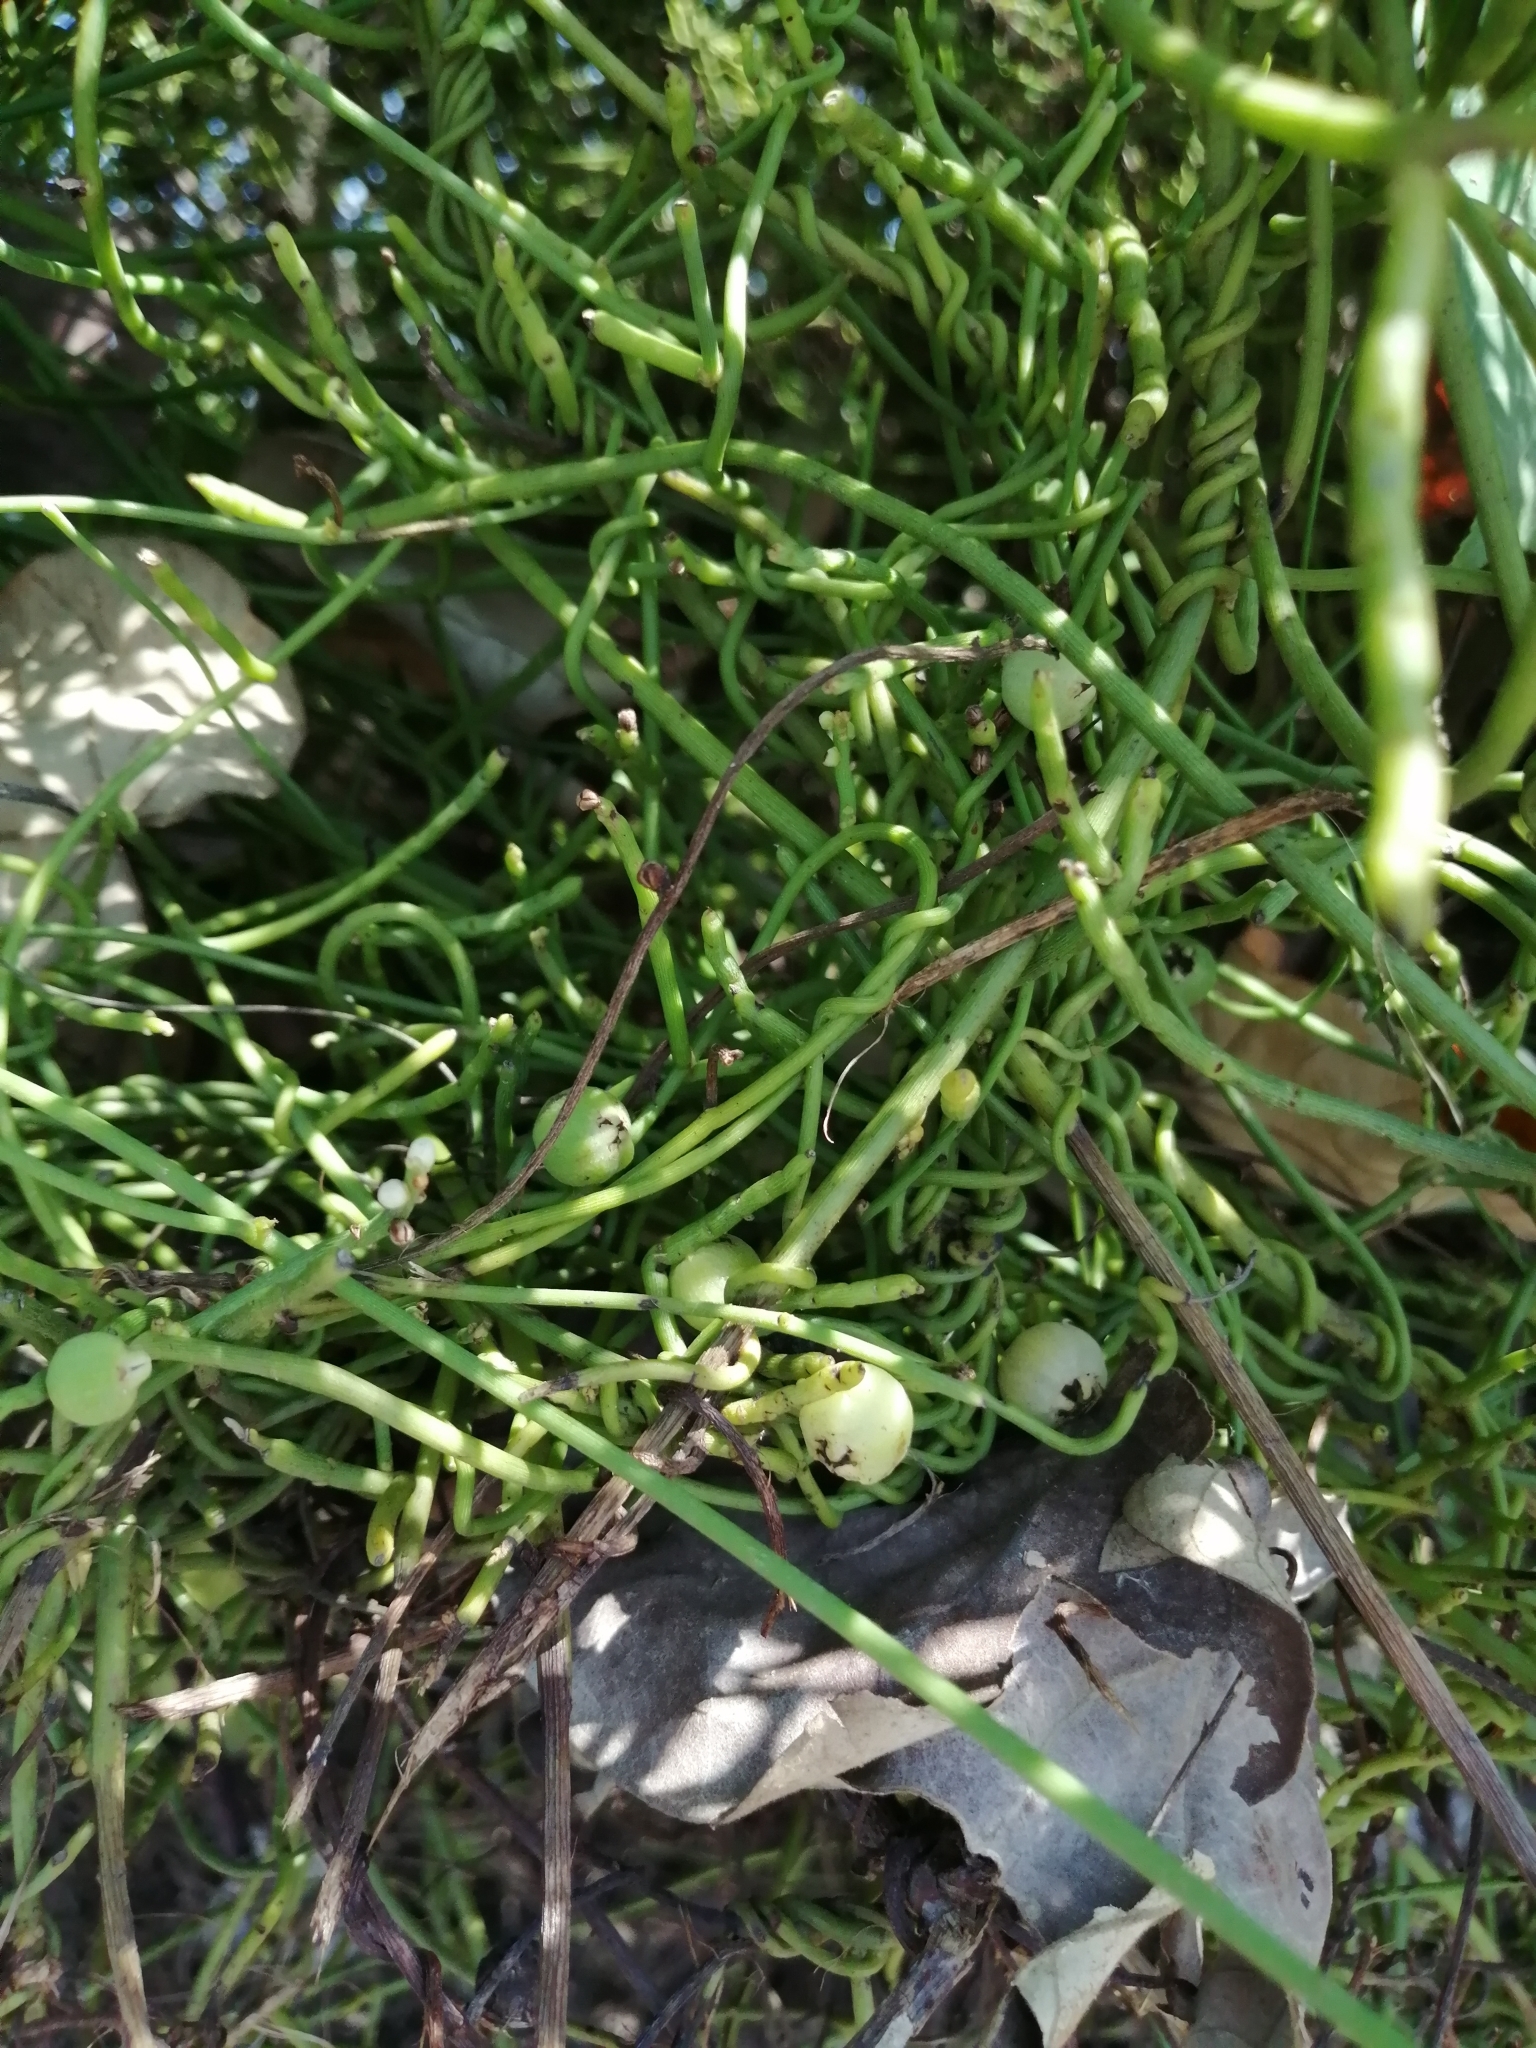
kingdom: Plantae
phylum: Tracheophyta
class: Magnoliopsida
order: Laurales
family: Lauraceae
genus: Cassytha
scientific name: Cassytha filiformis
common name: Dodder-laurel
